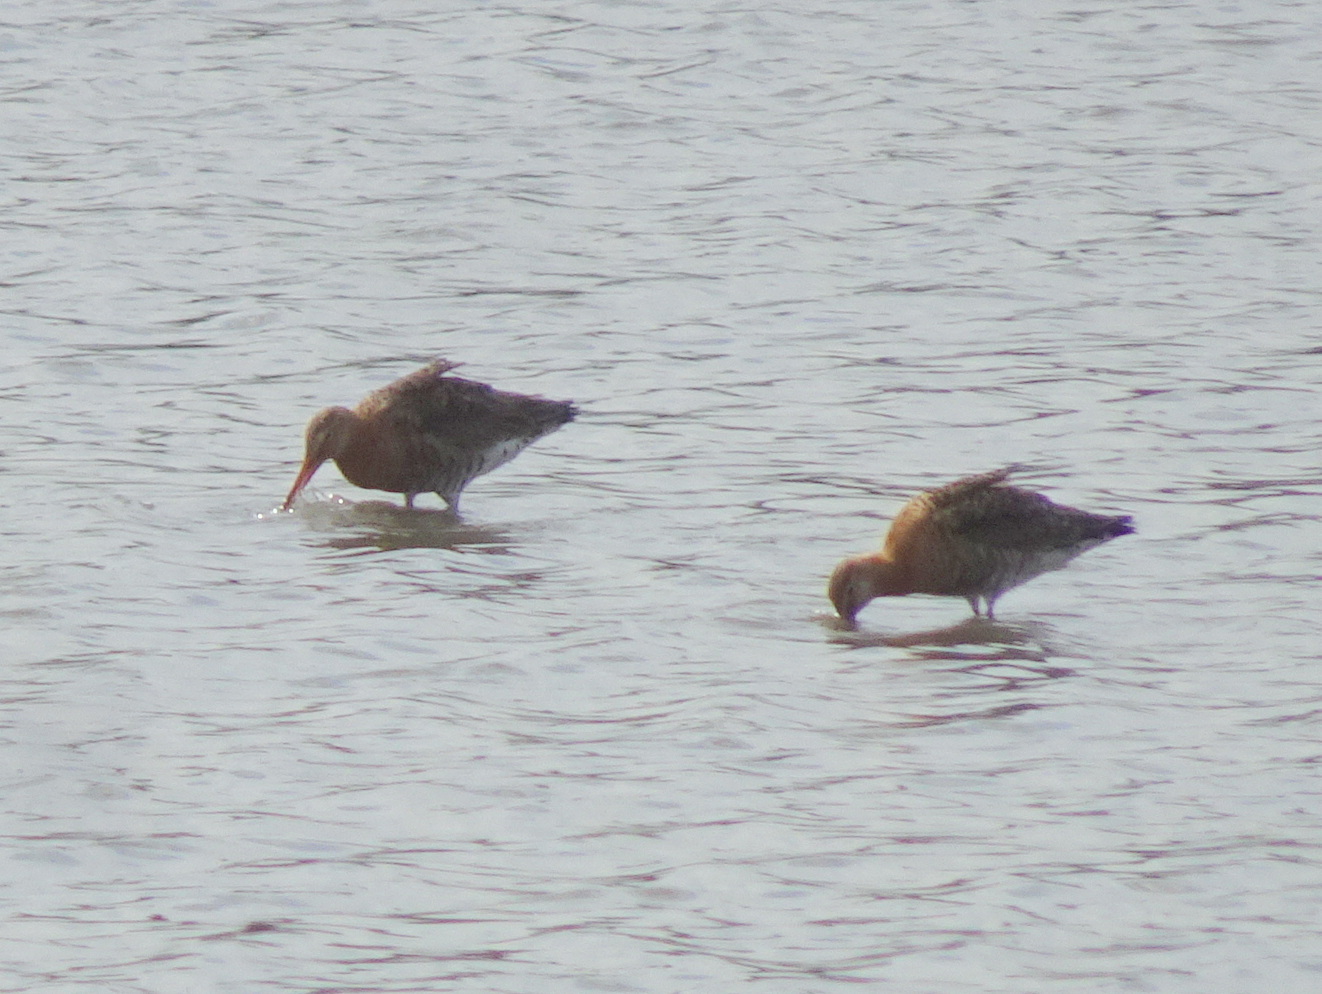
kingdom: Animalia
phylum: Chordata
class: Aves
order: Charadriiformes
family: Scolopacidae
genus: Limosa
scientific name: Limosa limosa
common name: Black-tailed godwit
